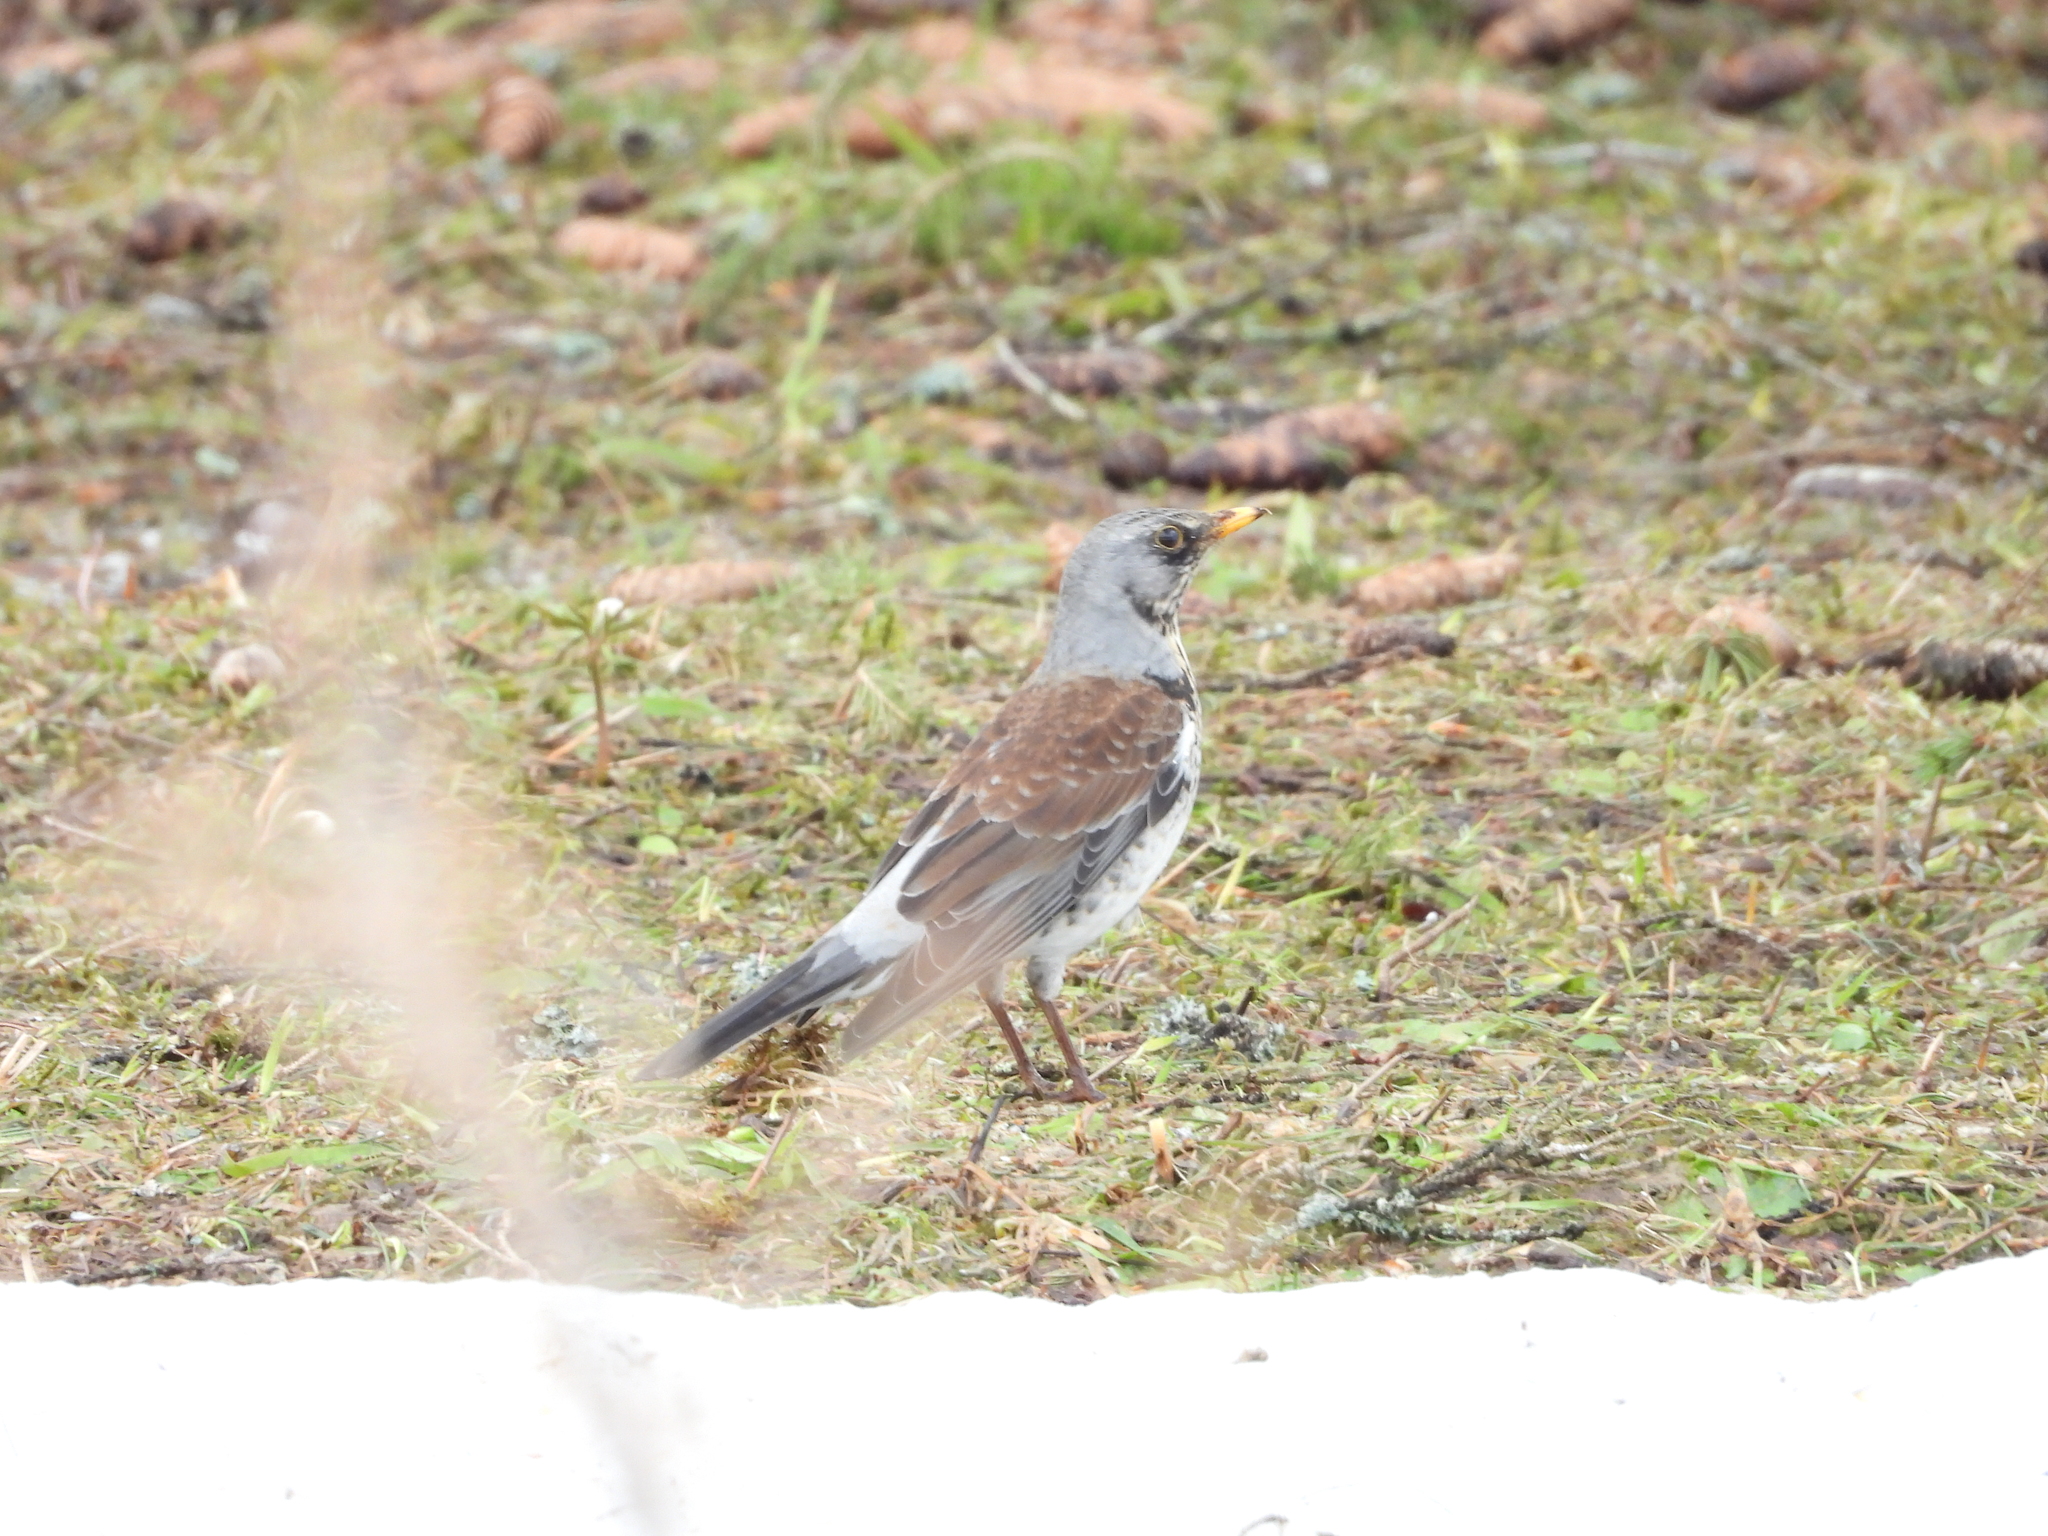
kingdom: Animalia
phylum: Chordata
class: Aves
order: Passeriformes
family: Turdidae
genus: Turdus
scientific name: Turdus pilaris
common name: Fieldfare
